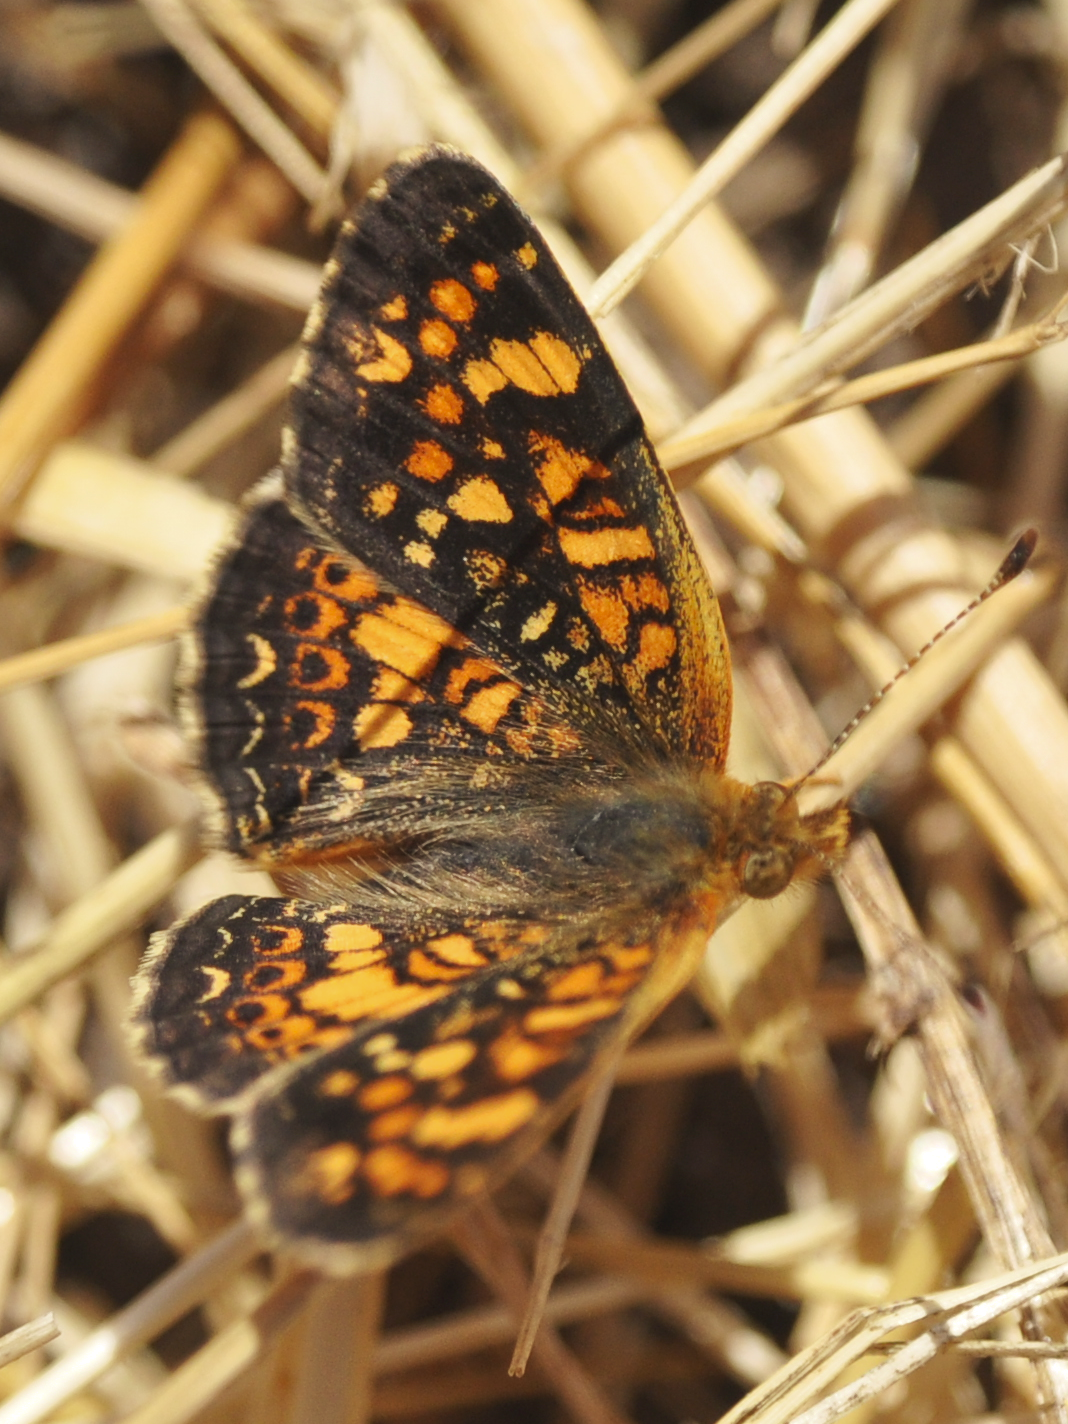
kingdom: Animalia
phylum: Arthropoda
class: Insecta
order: Lepidoptera
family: Nymphalidae
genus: Phyciodes
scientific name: Phyciodes tharos
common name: Pearl crescent
